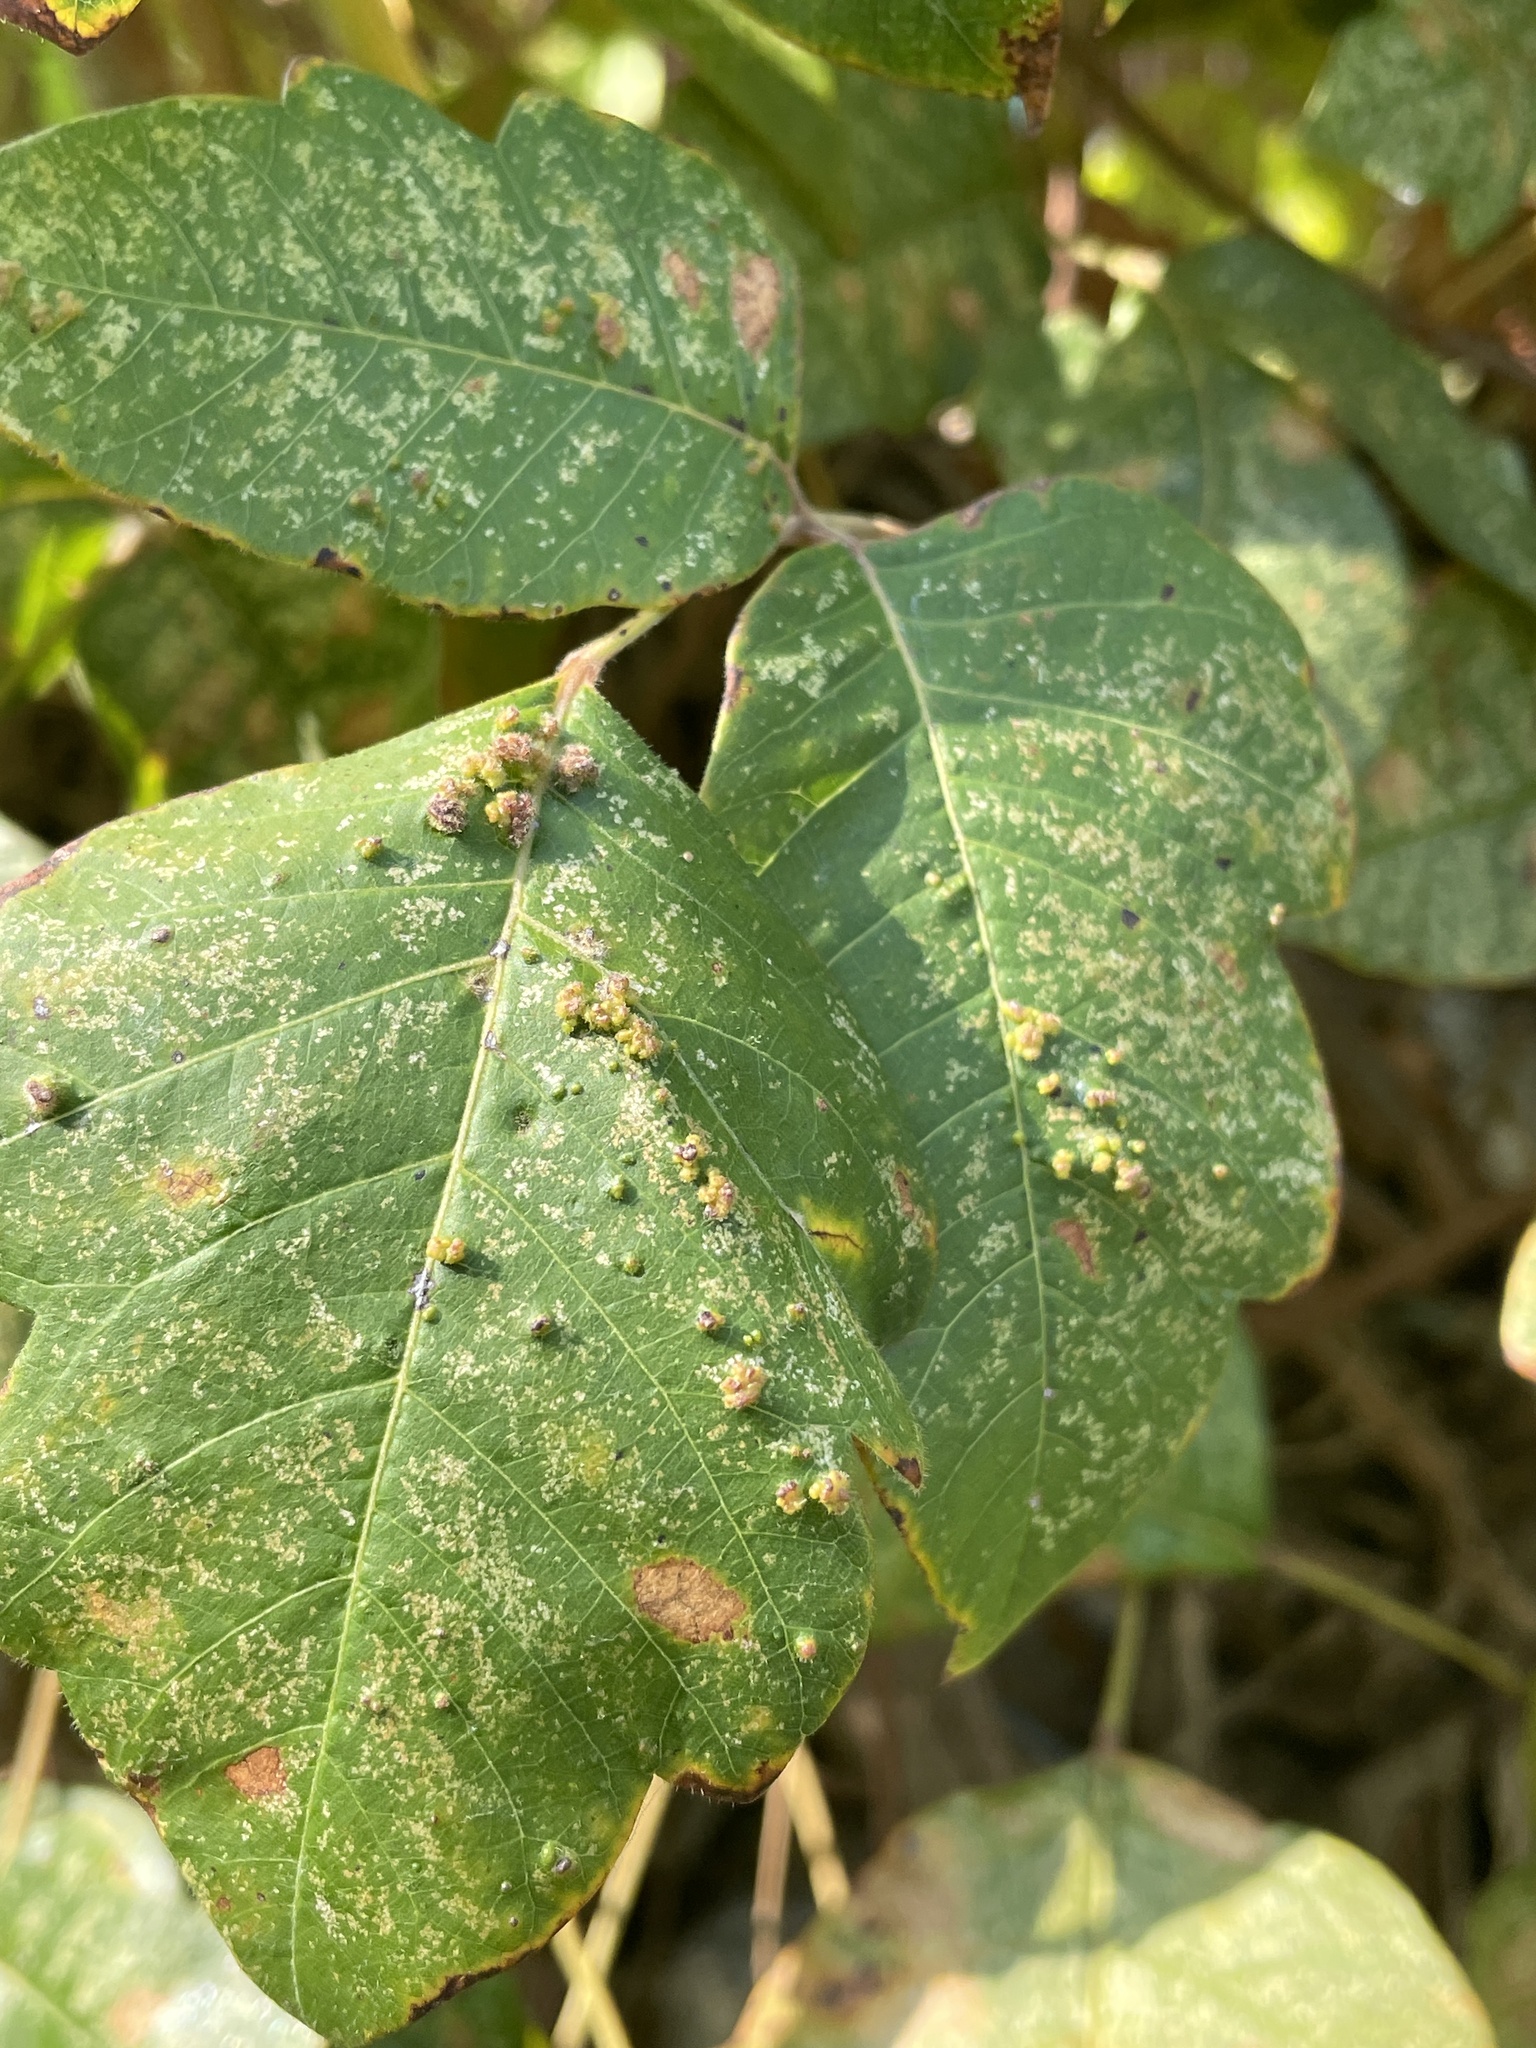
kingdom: Animalia
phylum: Arthropoda
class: Arachnida
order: Trombidiformes
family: Eriophyidae
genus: Aculops
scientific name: Aculops
